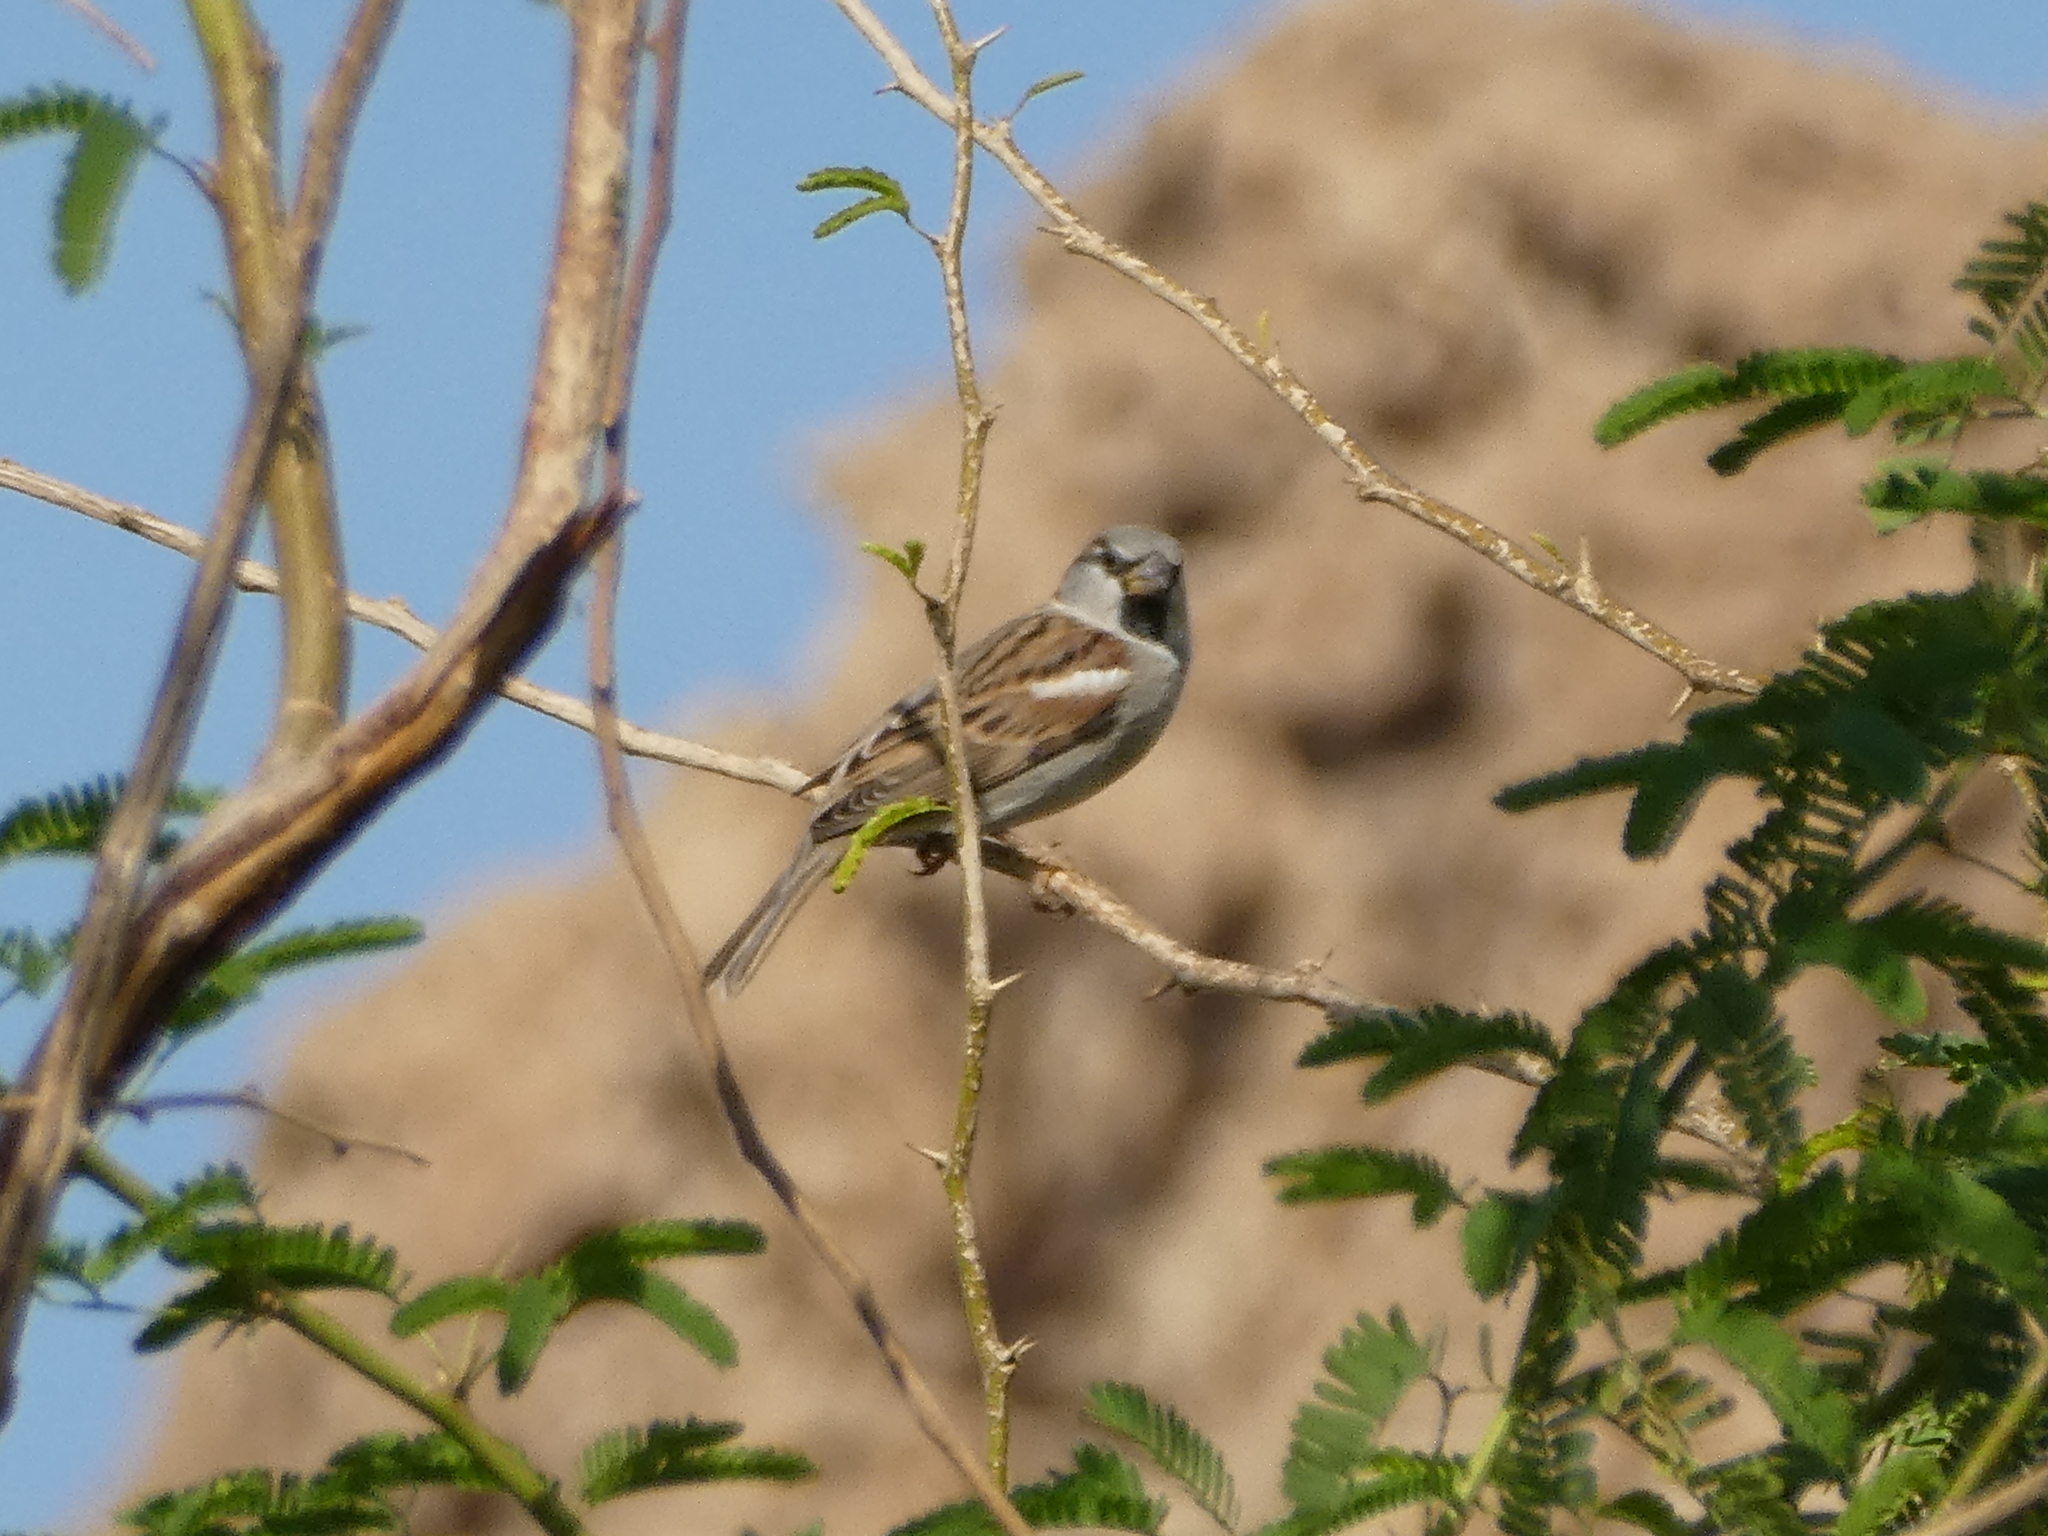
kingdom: Animalia
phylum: Chordata
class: Aves
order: Passeriformes
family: Passeridae
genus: Passer
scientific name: Passer domesticus
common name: House sparrow
